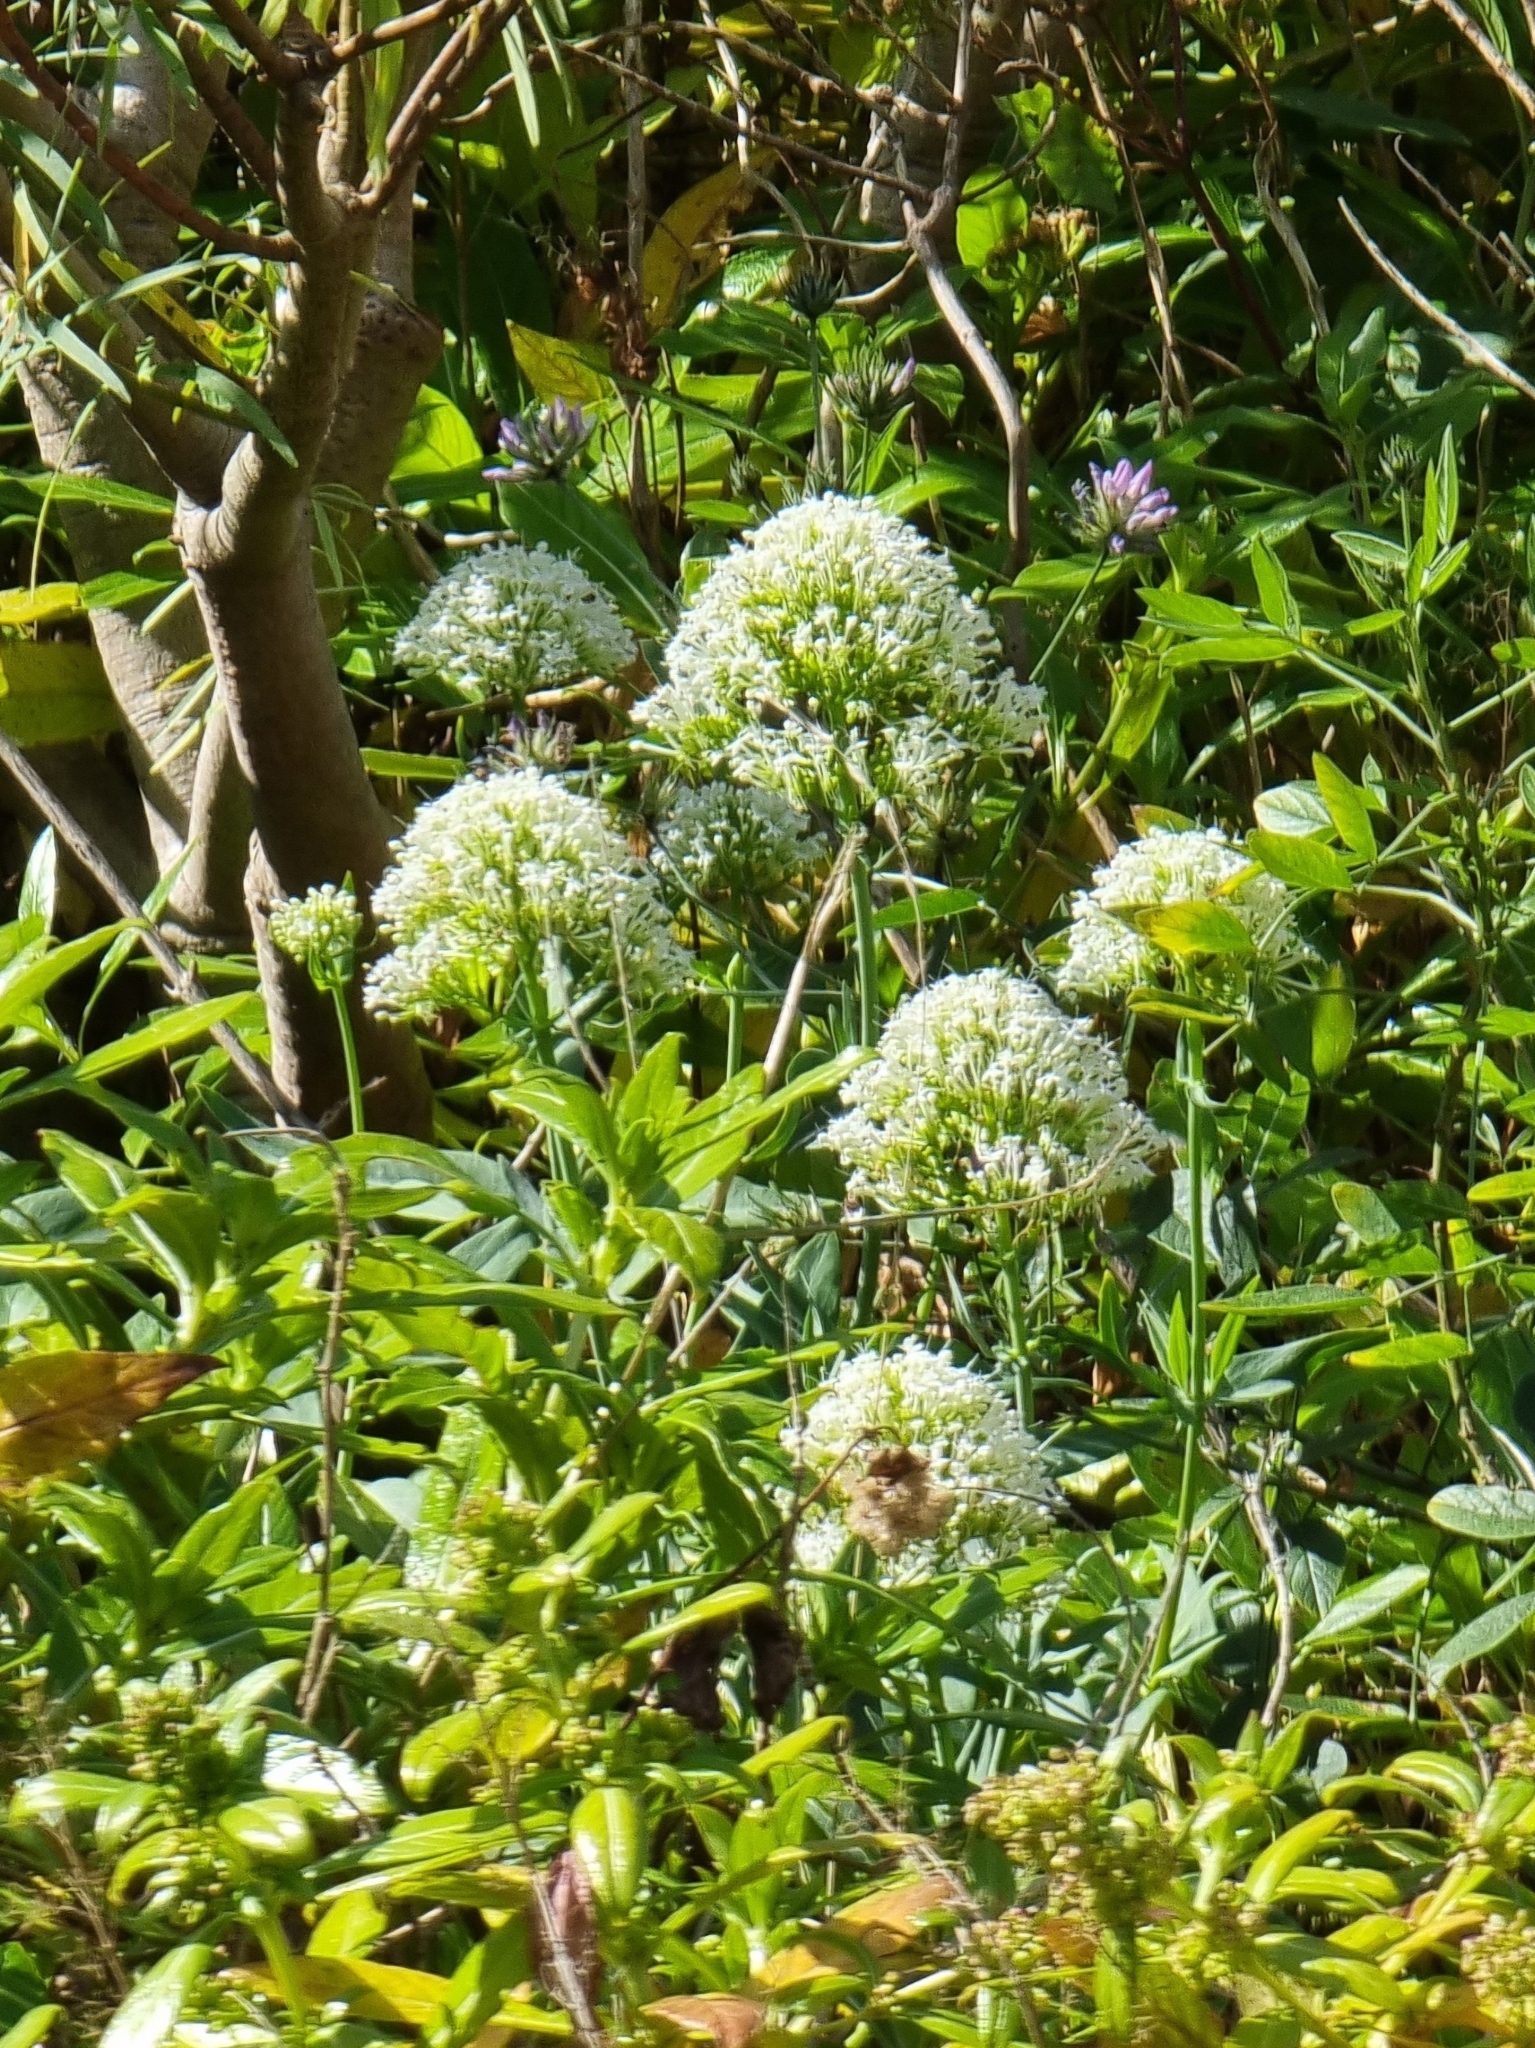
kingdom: Plantae
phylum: Tracheophyta
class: Magnoliopsida
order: Dipsacales
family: Caprifoliaceae
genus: Centranthus
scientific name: Centranthus ruber
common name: Red valerian
